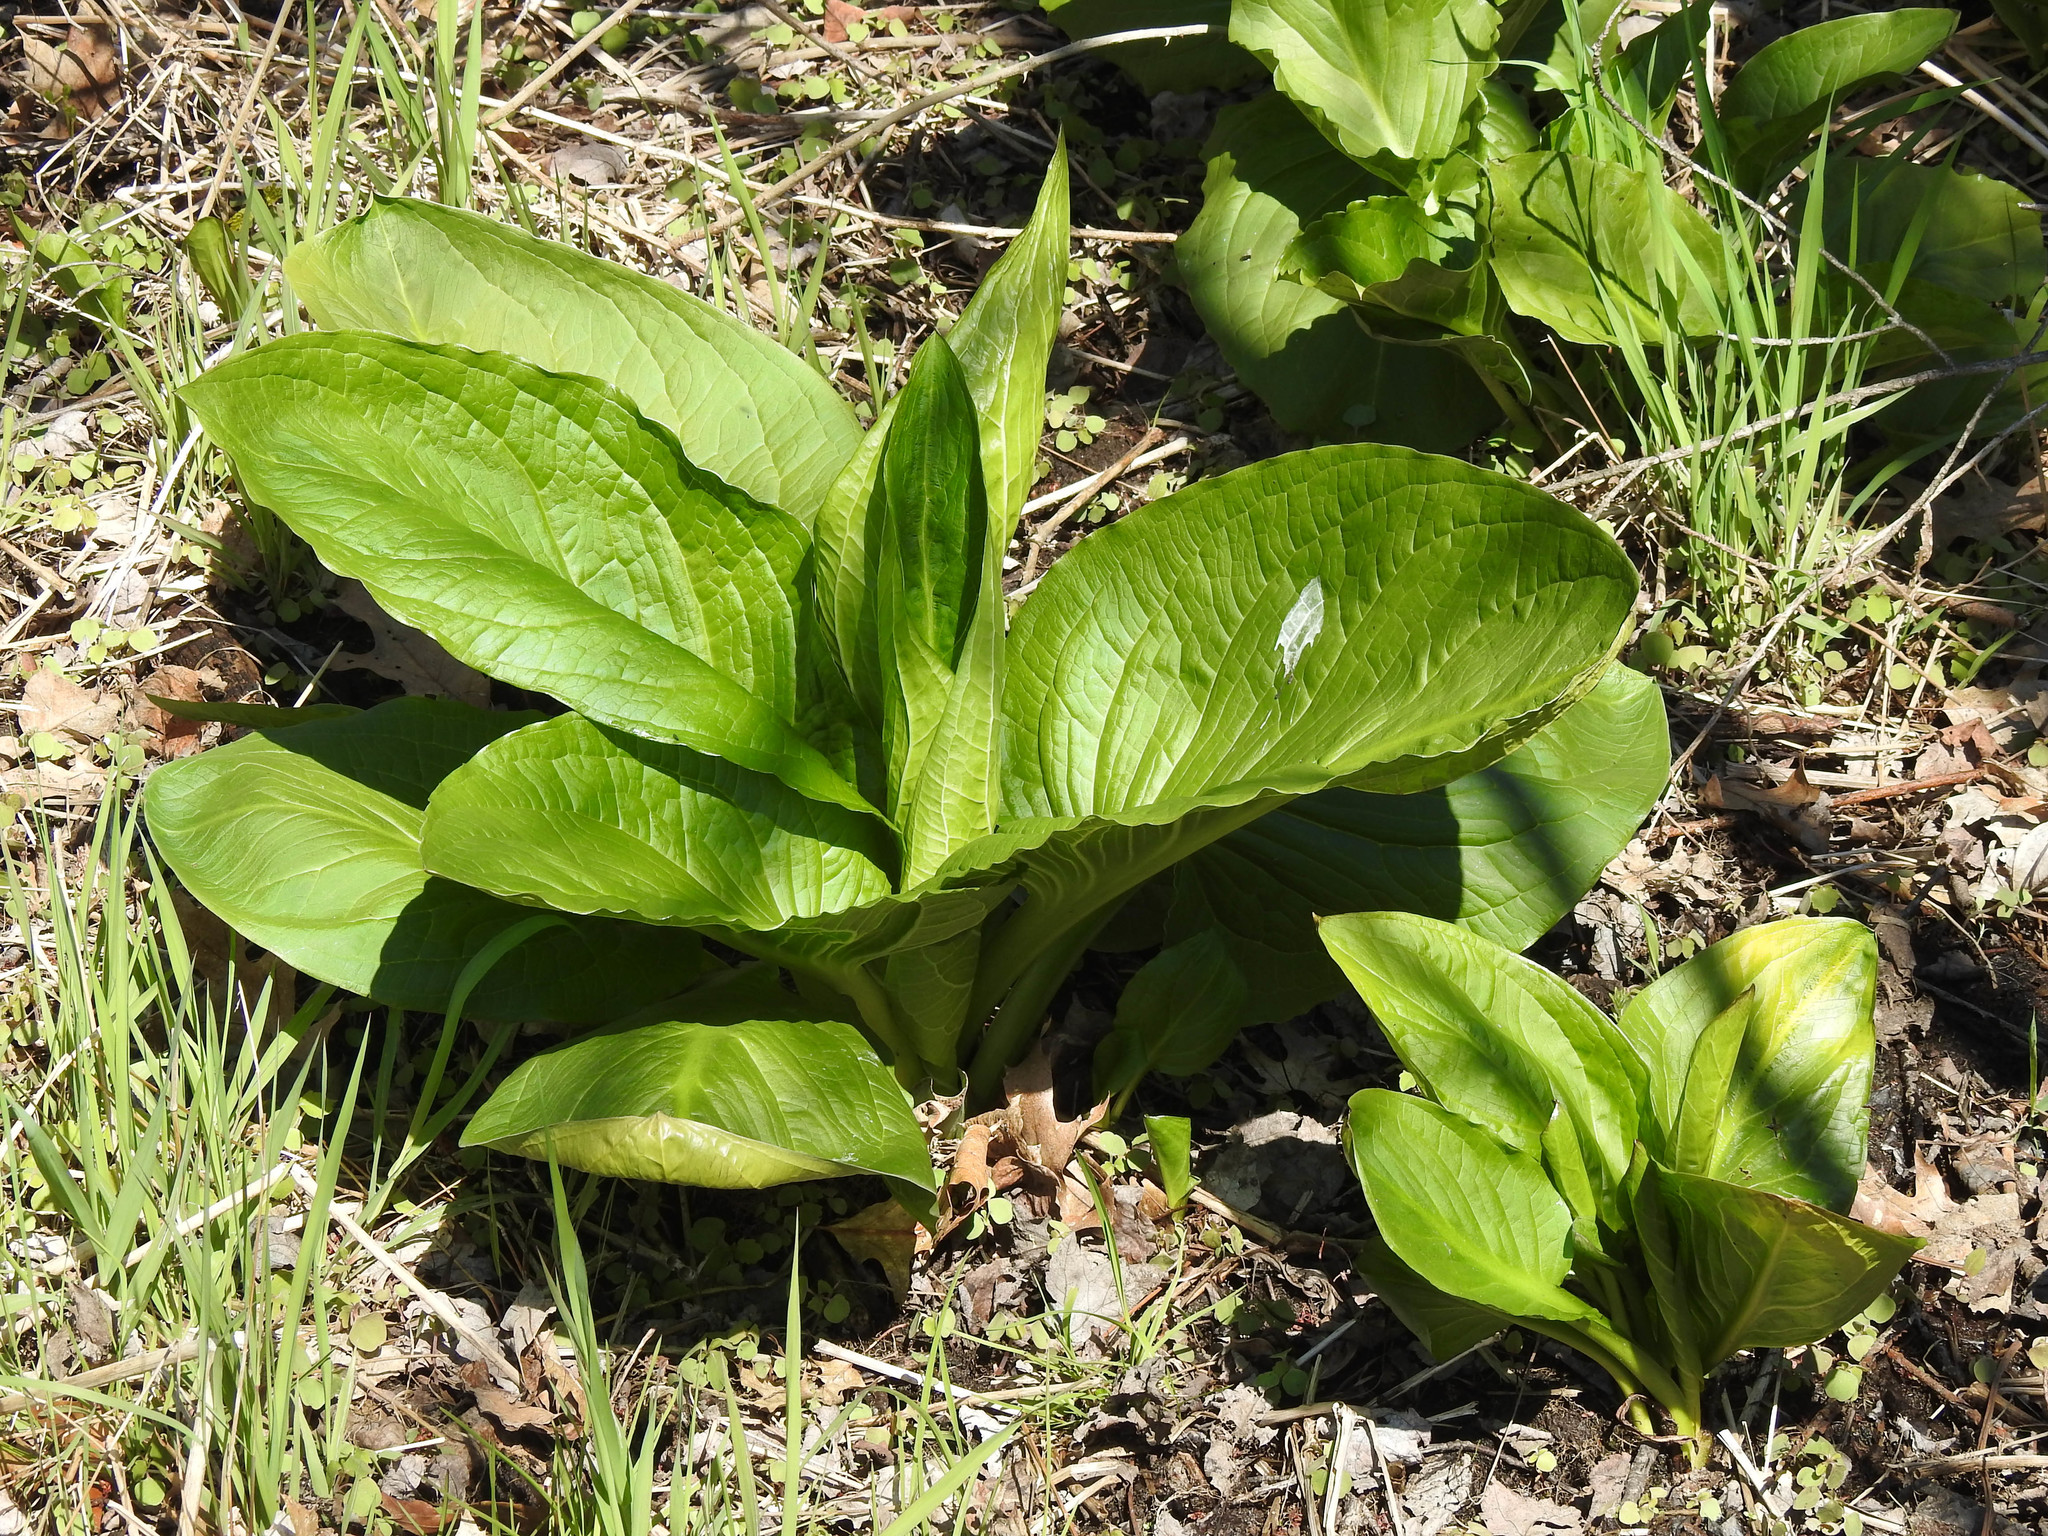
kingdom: Plantae
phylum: Tracheophyta
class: Liliopsida
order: Alismatales
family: Araceae
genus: Symplocarpus
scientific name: Symplocarpus foetidus
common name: Eastern skunk cabbage
